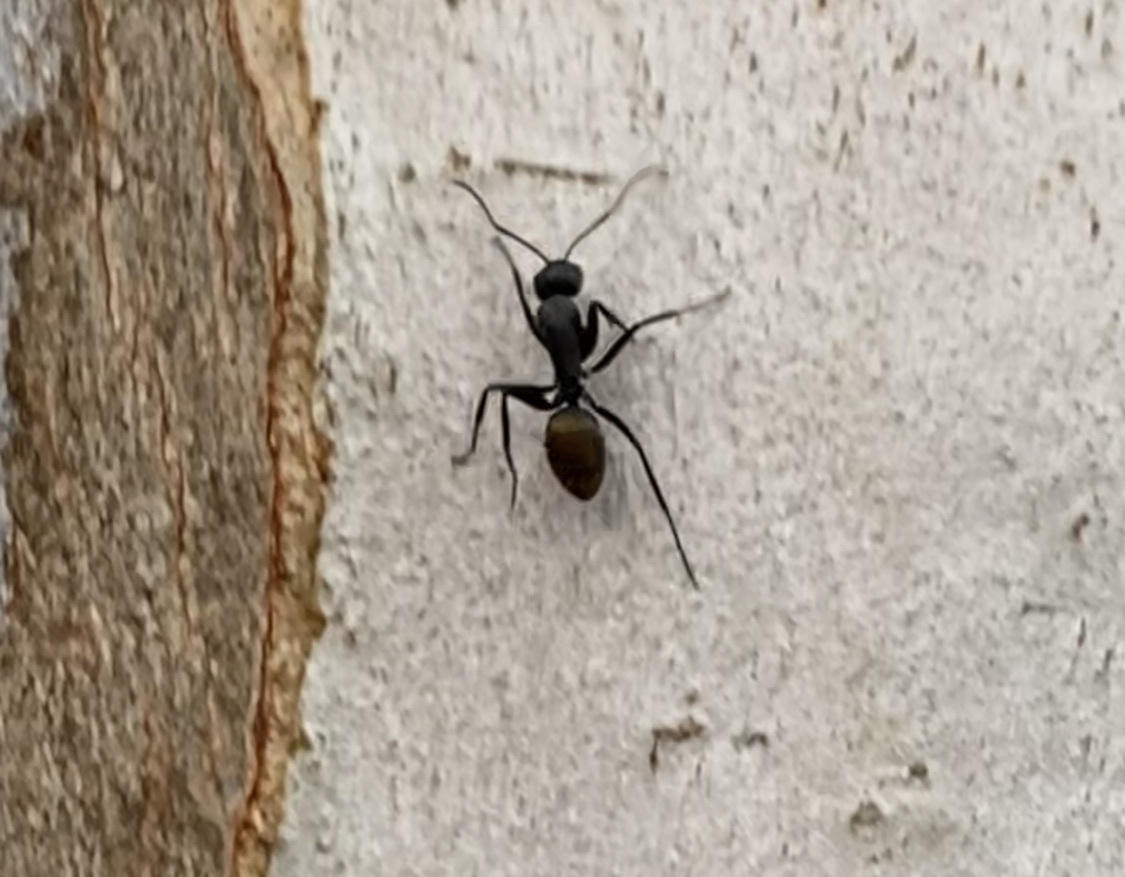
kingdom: Animalia
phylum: Arthropoda
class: Insecta
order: Hymenoptera
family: Formicidae
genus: Camponotus
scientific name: Camponotus aeneopilosus
